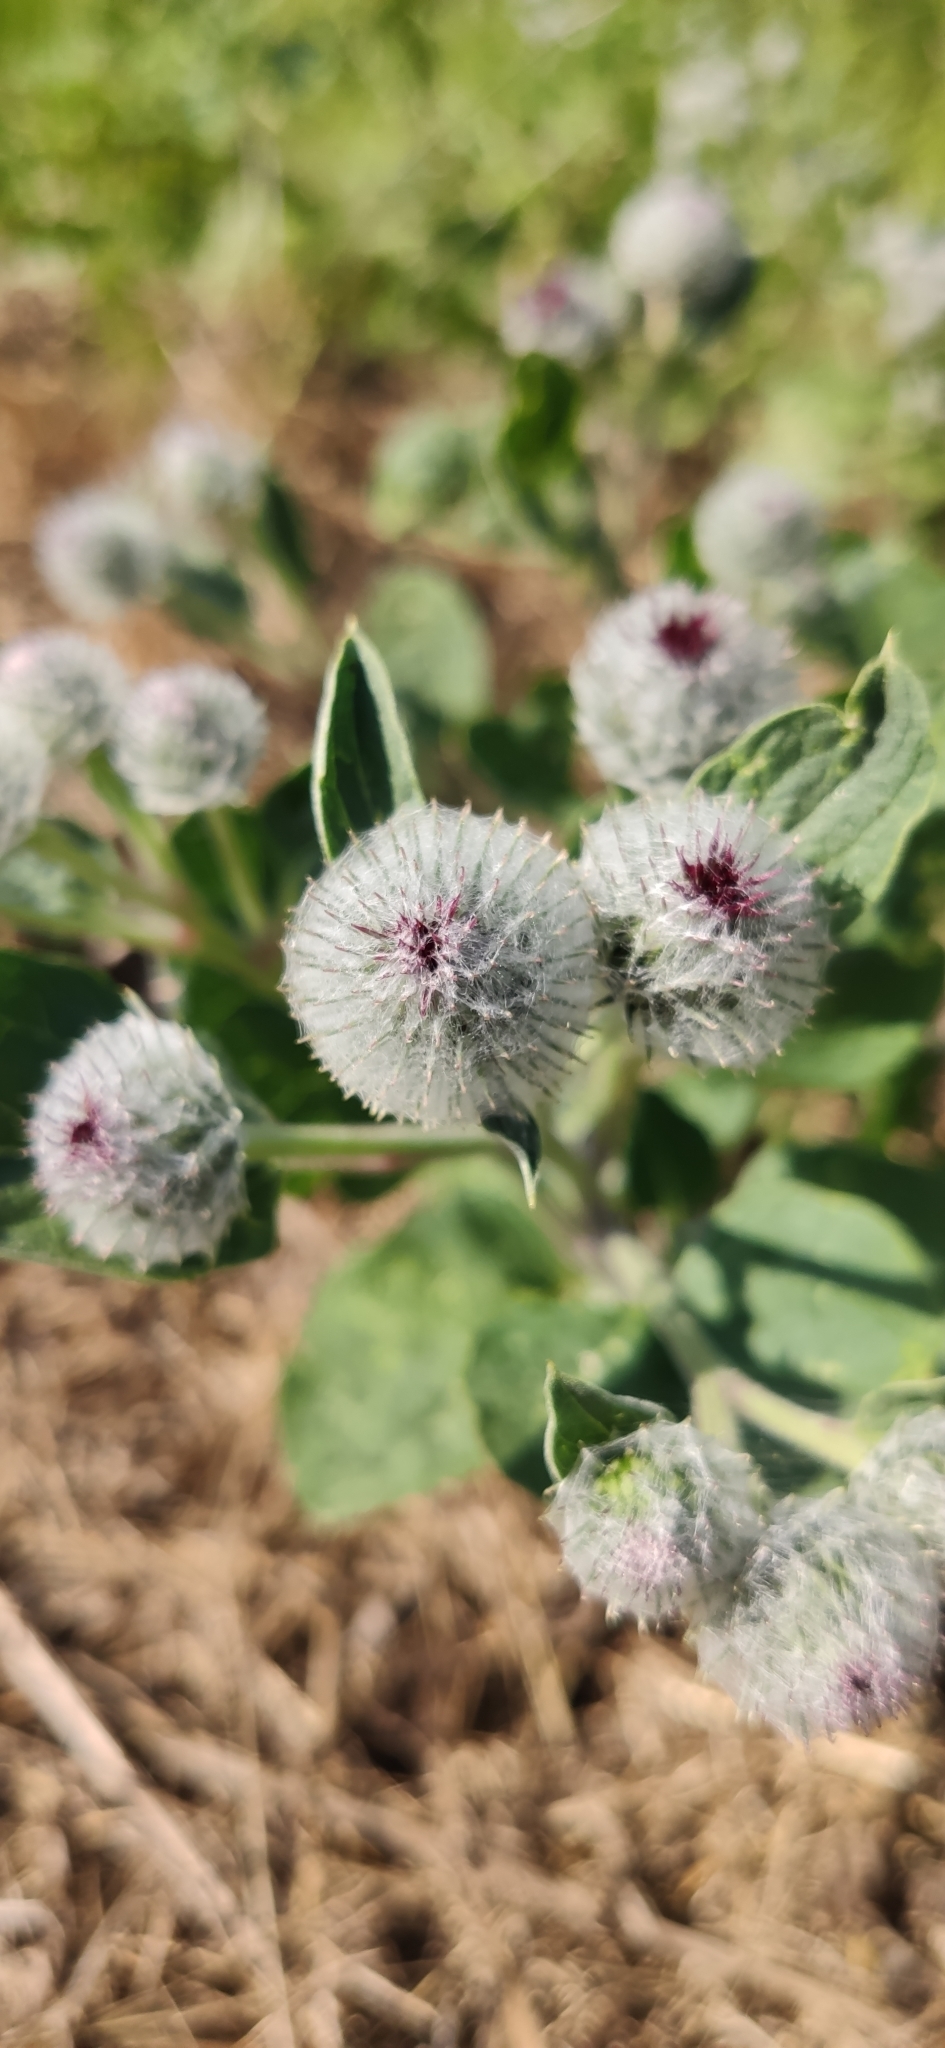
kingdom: Plantae
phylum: Tracheophyta
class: Magnoliopsida
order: Asterales
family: Asteraceae
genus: Arctium
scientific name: Arctium tomentosum
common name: Woolly burdock
